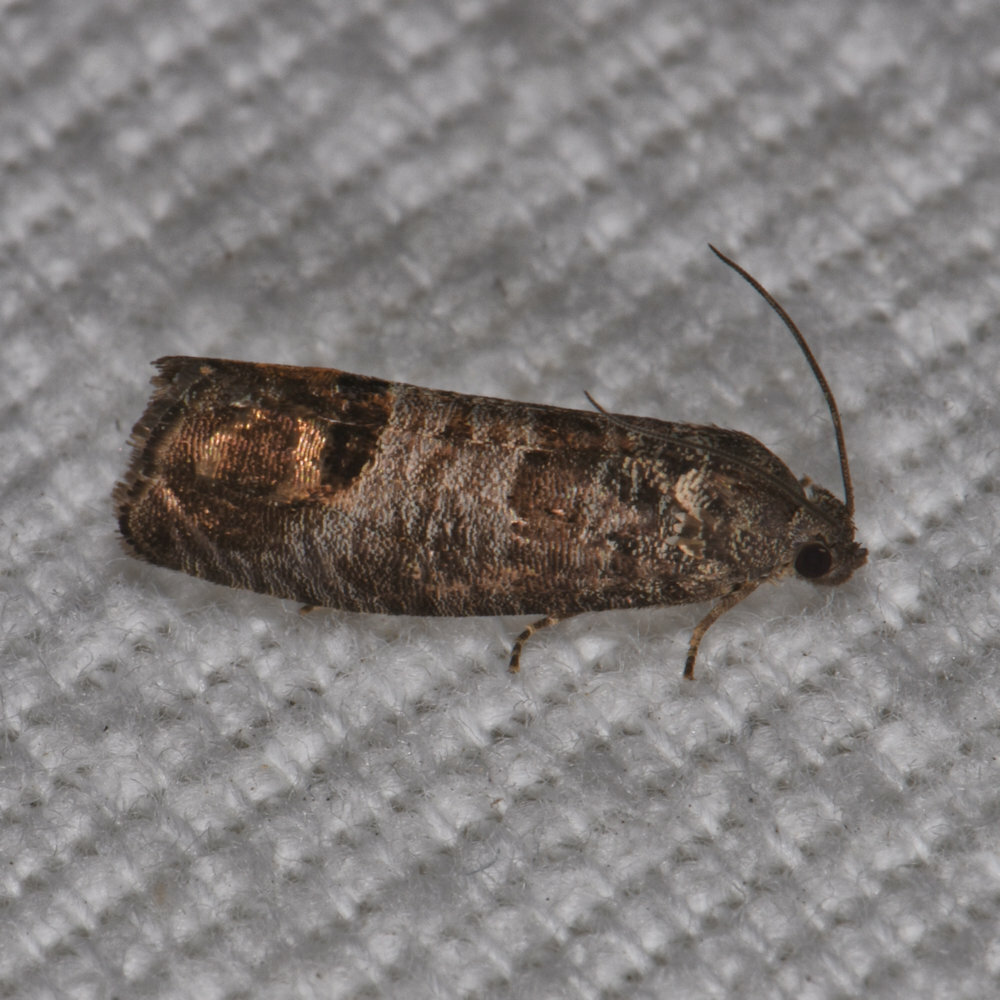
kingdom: Animalia
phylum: Arthropoda
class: Insecta
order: Lepidoptera
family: Tortricidae
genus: Cydia
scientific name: Cydia pomonella
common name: Codling moth
